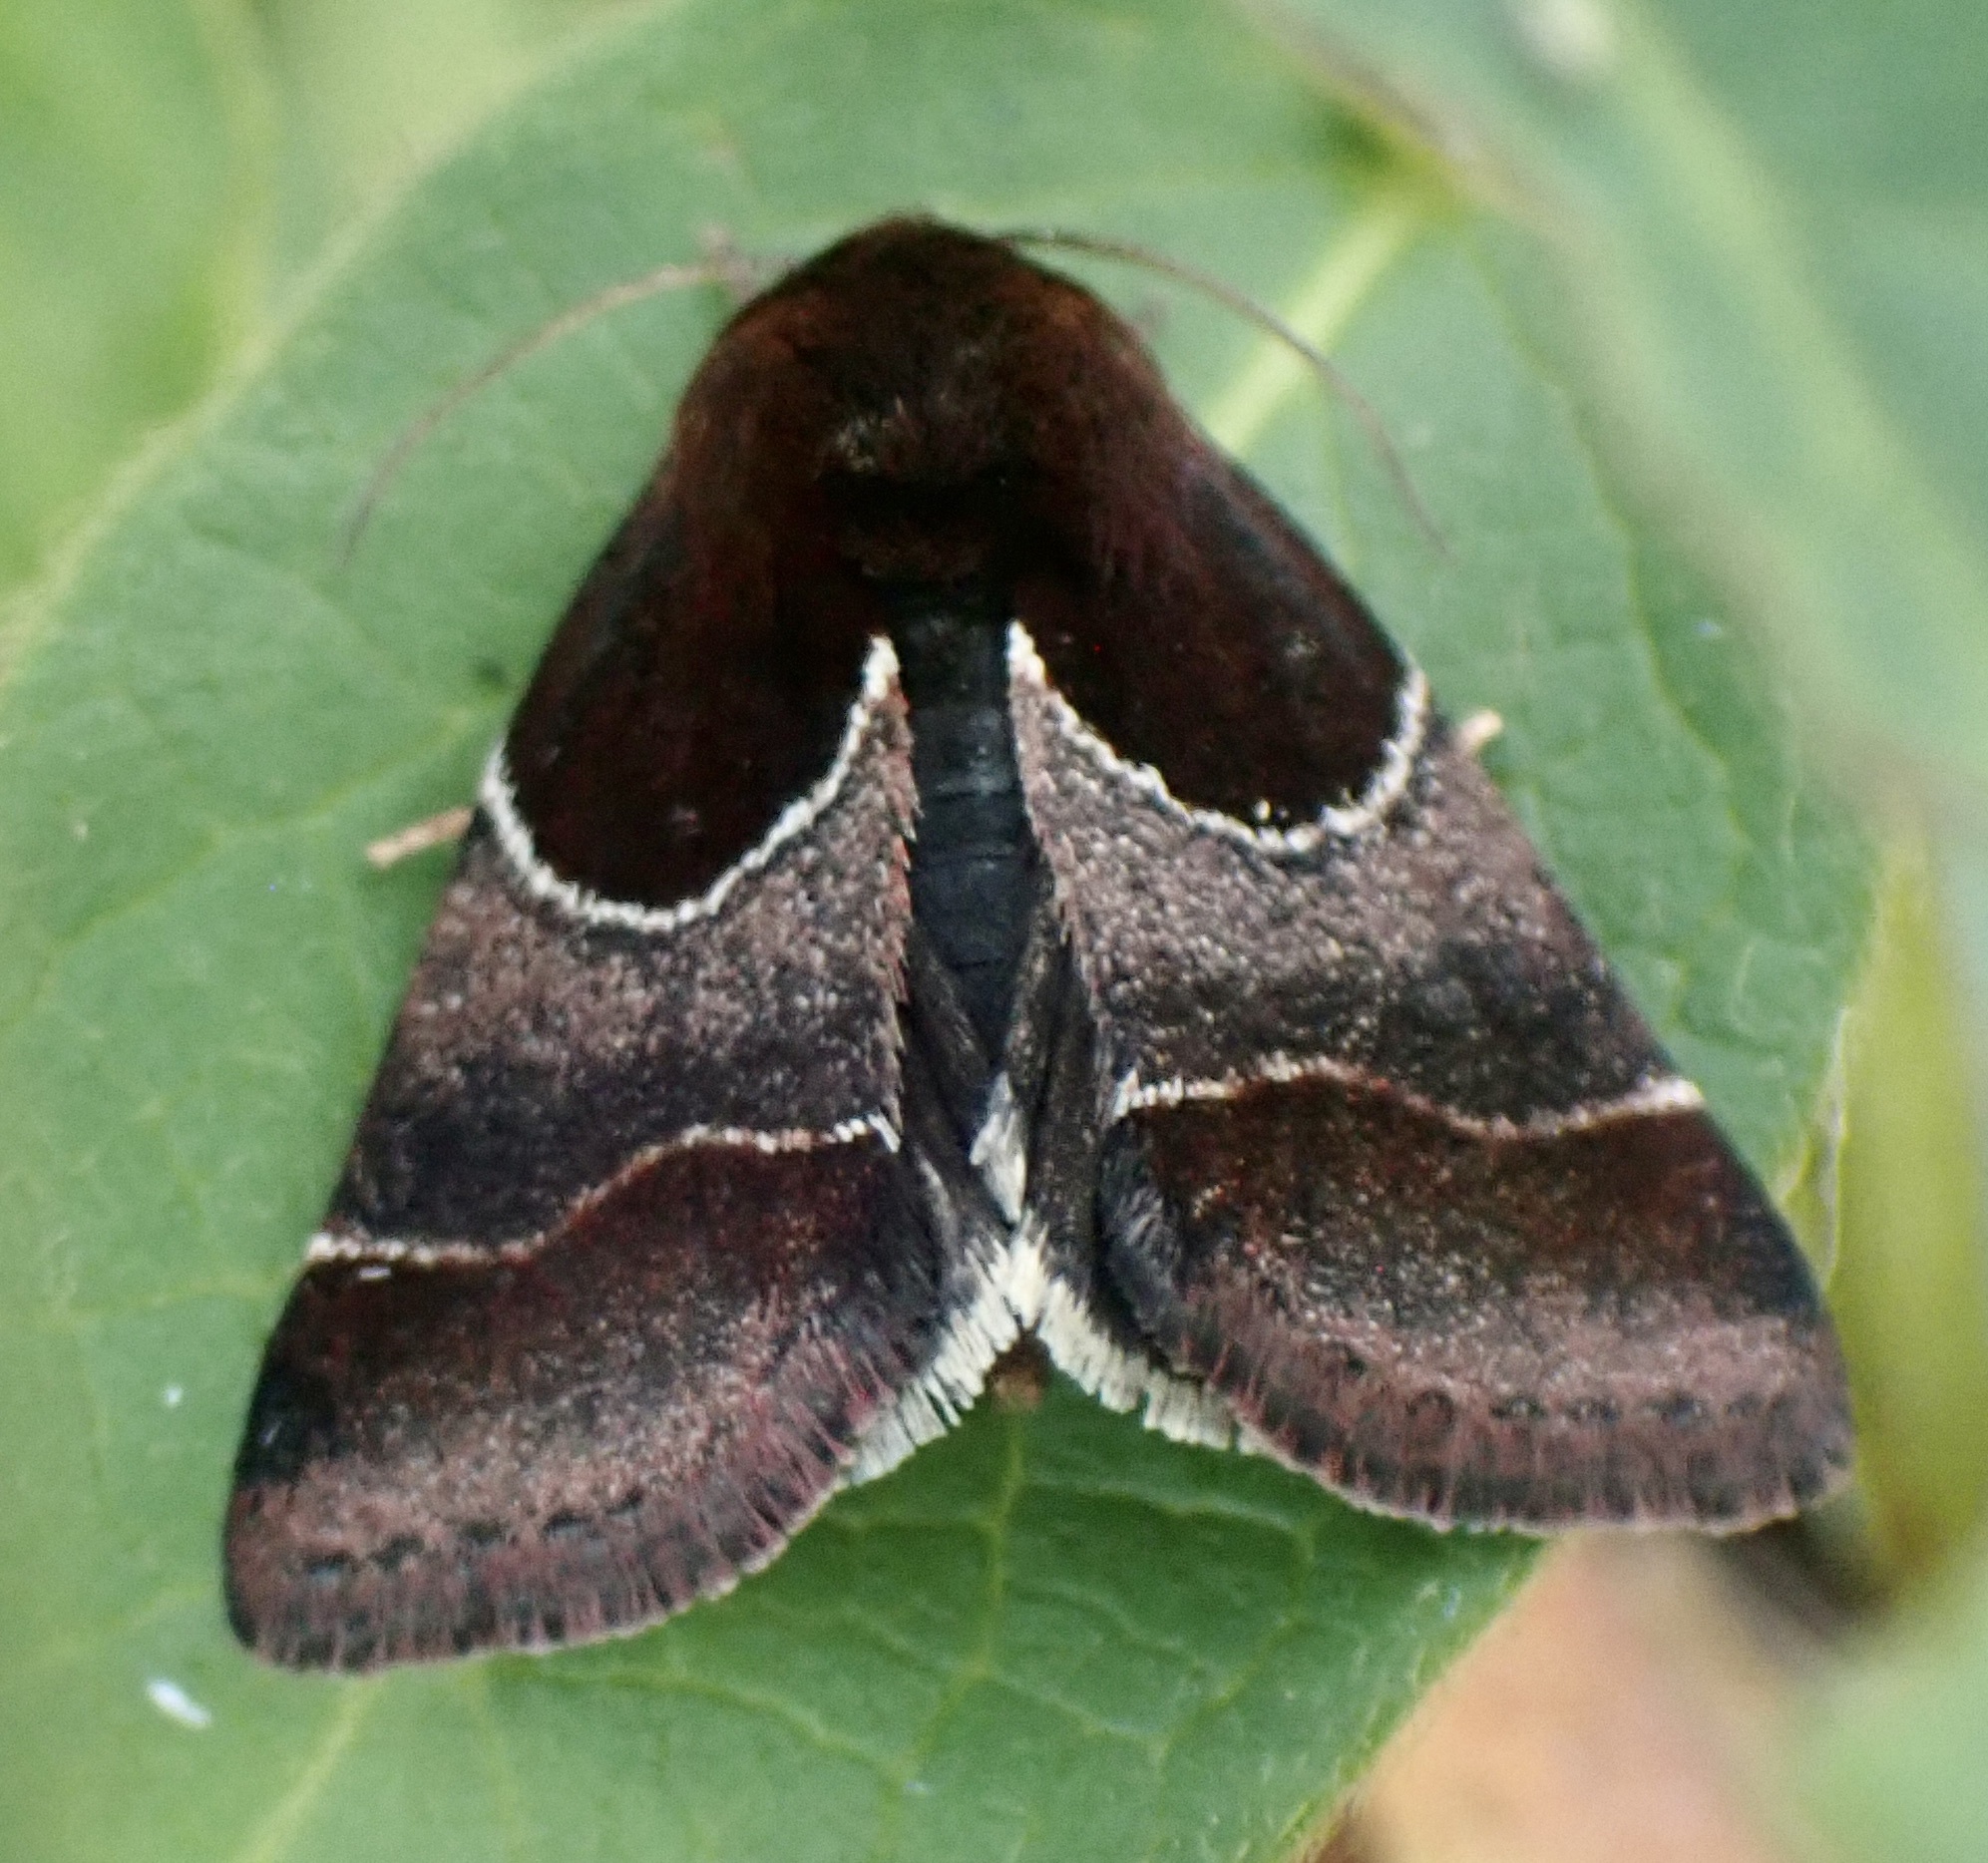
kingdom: Animalia
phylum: Arthropoda
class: Insecta
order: Lepidoptera
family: Noctuidae
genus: Schinia
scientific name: Schinia arcigera
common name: Arcigera flower moth
